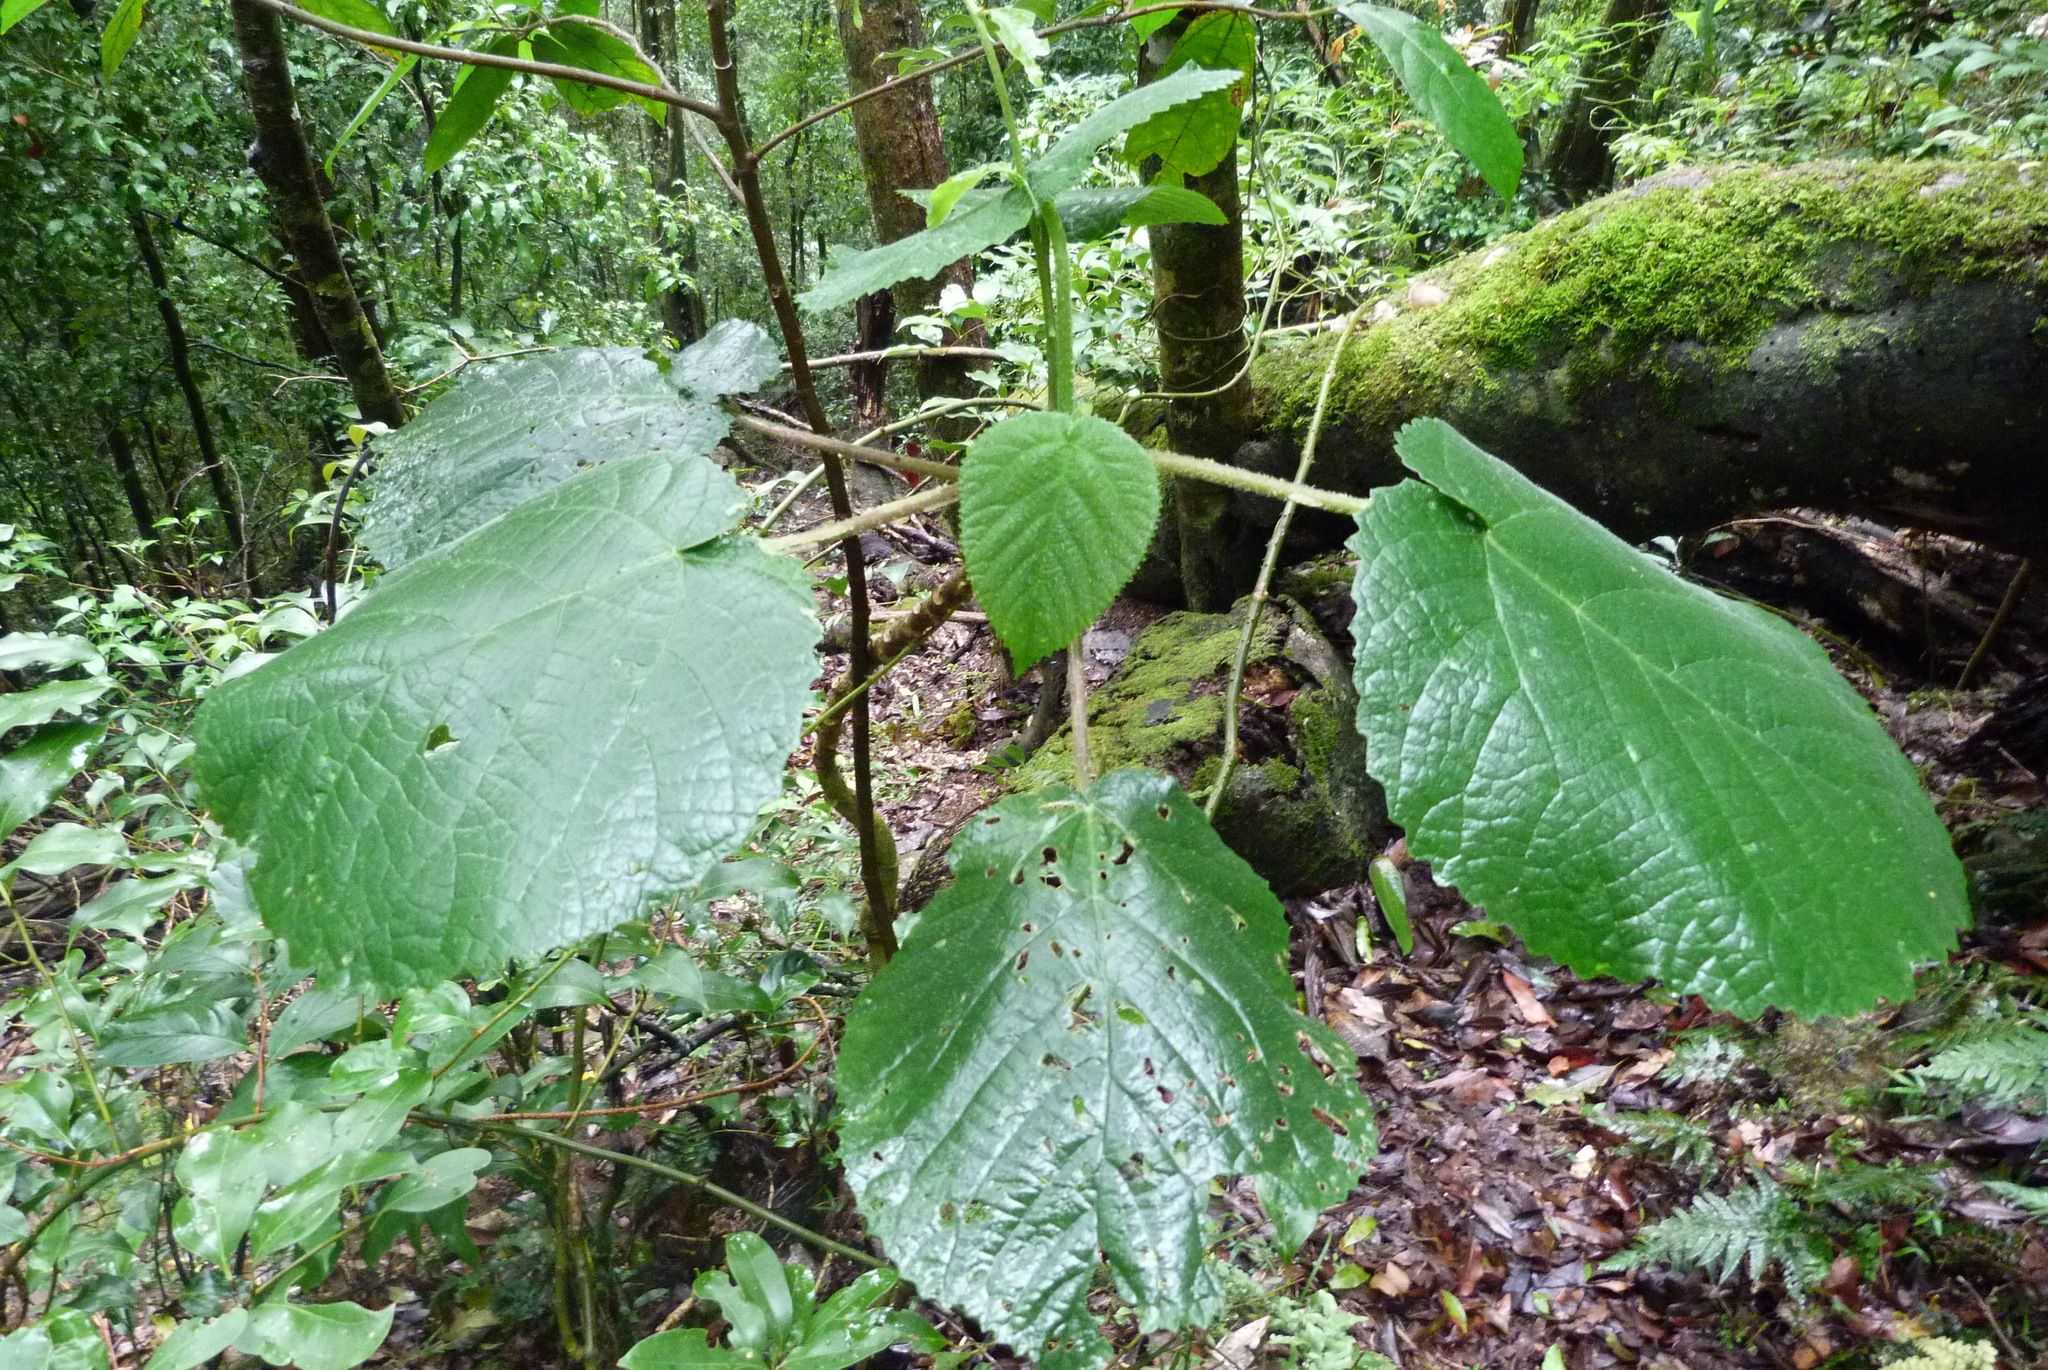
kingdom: Plantae
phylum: Tracheophyta
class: Magnoliopsida
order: Rosales
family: Urticaceae
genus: Dendrocnide
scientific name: Dendrocnide excelsa
